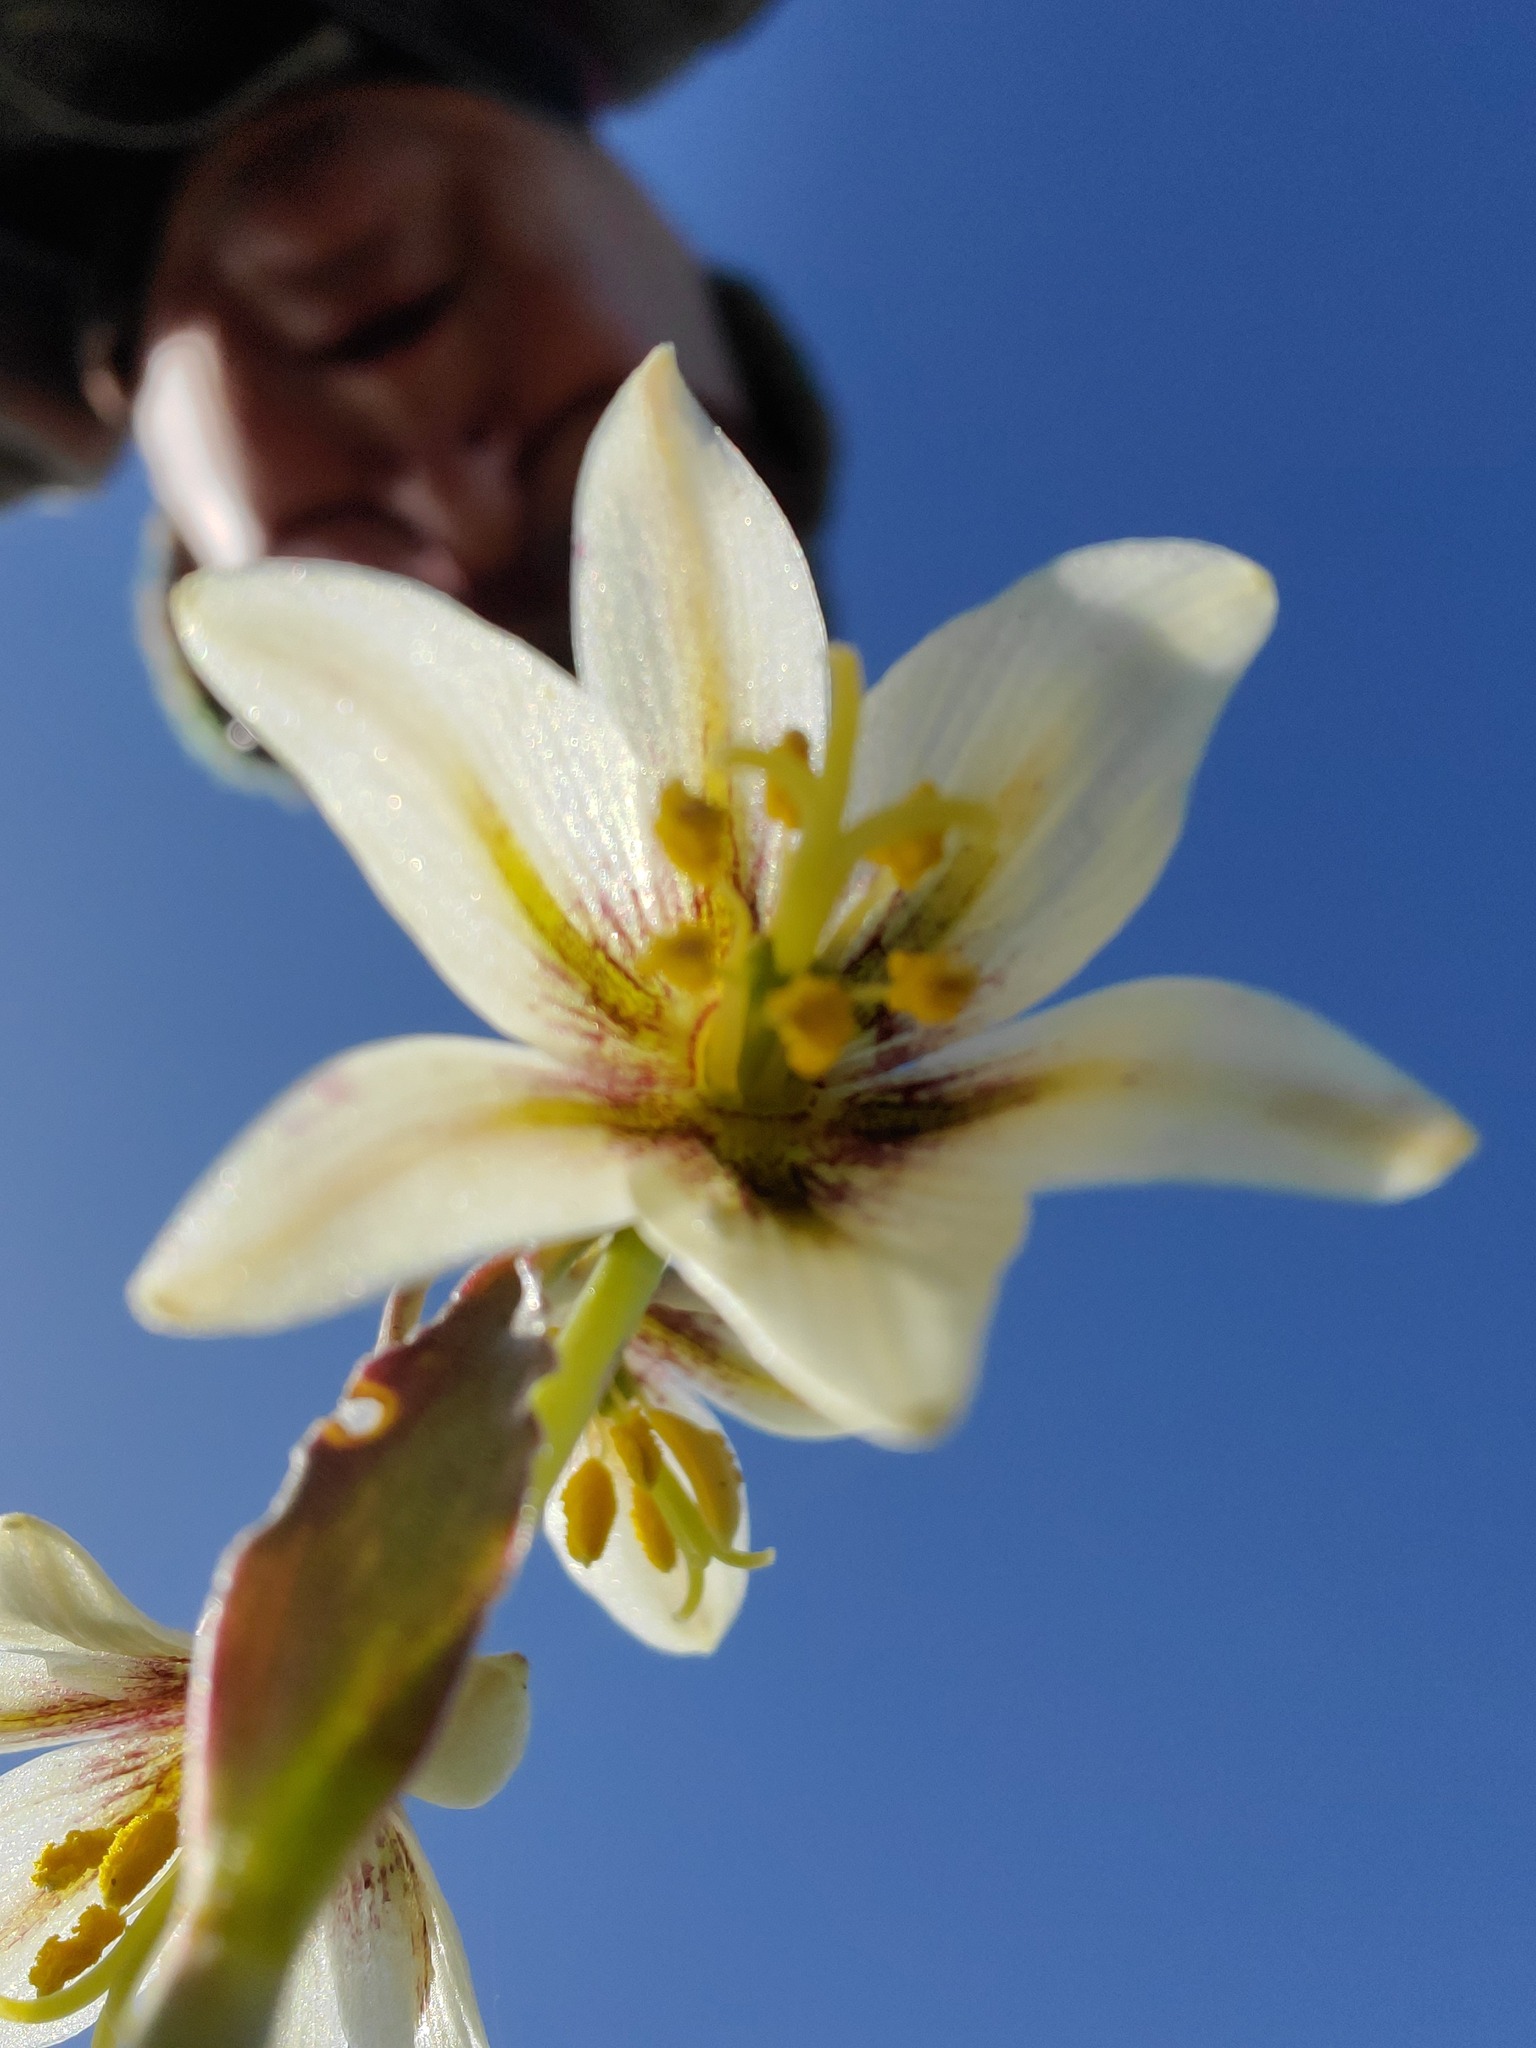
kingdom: Plantae
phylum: Tracheophyta
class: Liliopsida
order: Liliales
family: Liliaceae
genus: Fritillaria
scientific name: Fritillaria liliacea
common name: Fragrant fritillary
